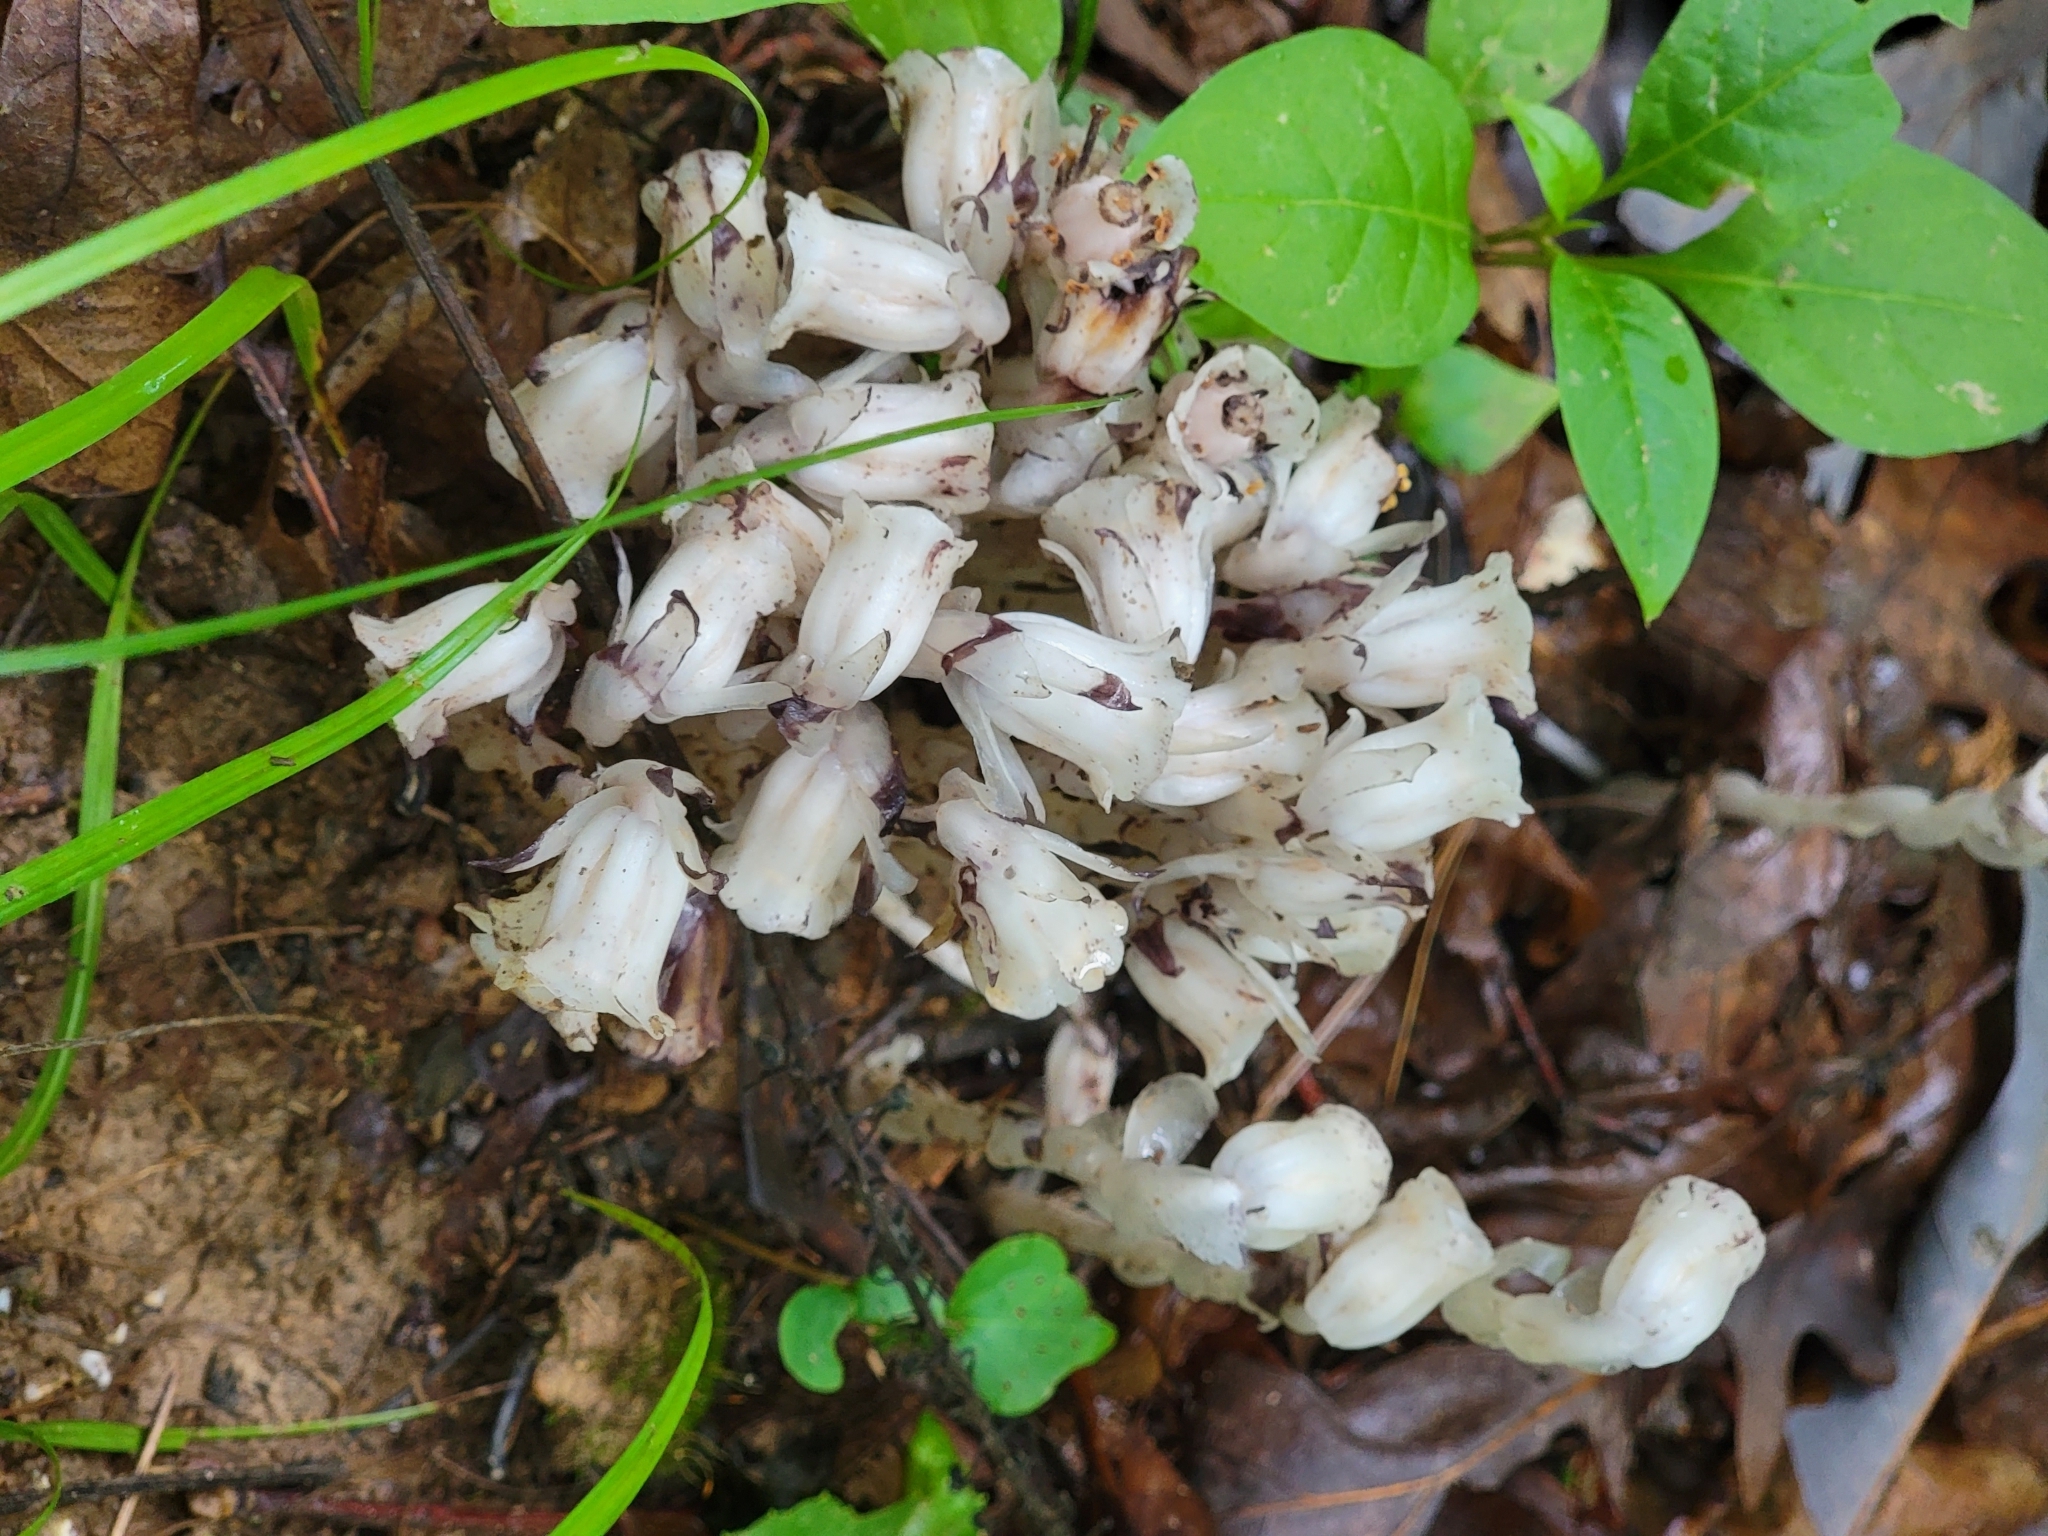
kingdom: Plantae
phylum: Tracheophyta
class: Magnoliopsida
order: Ericales
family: Ericaceae
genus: Monotropa
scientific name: Monotropa uniflora
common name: Convulsion root
